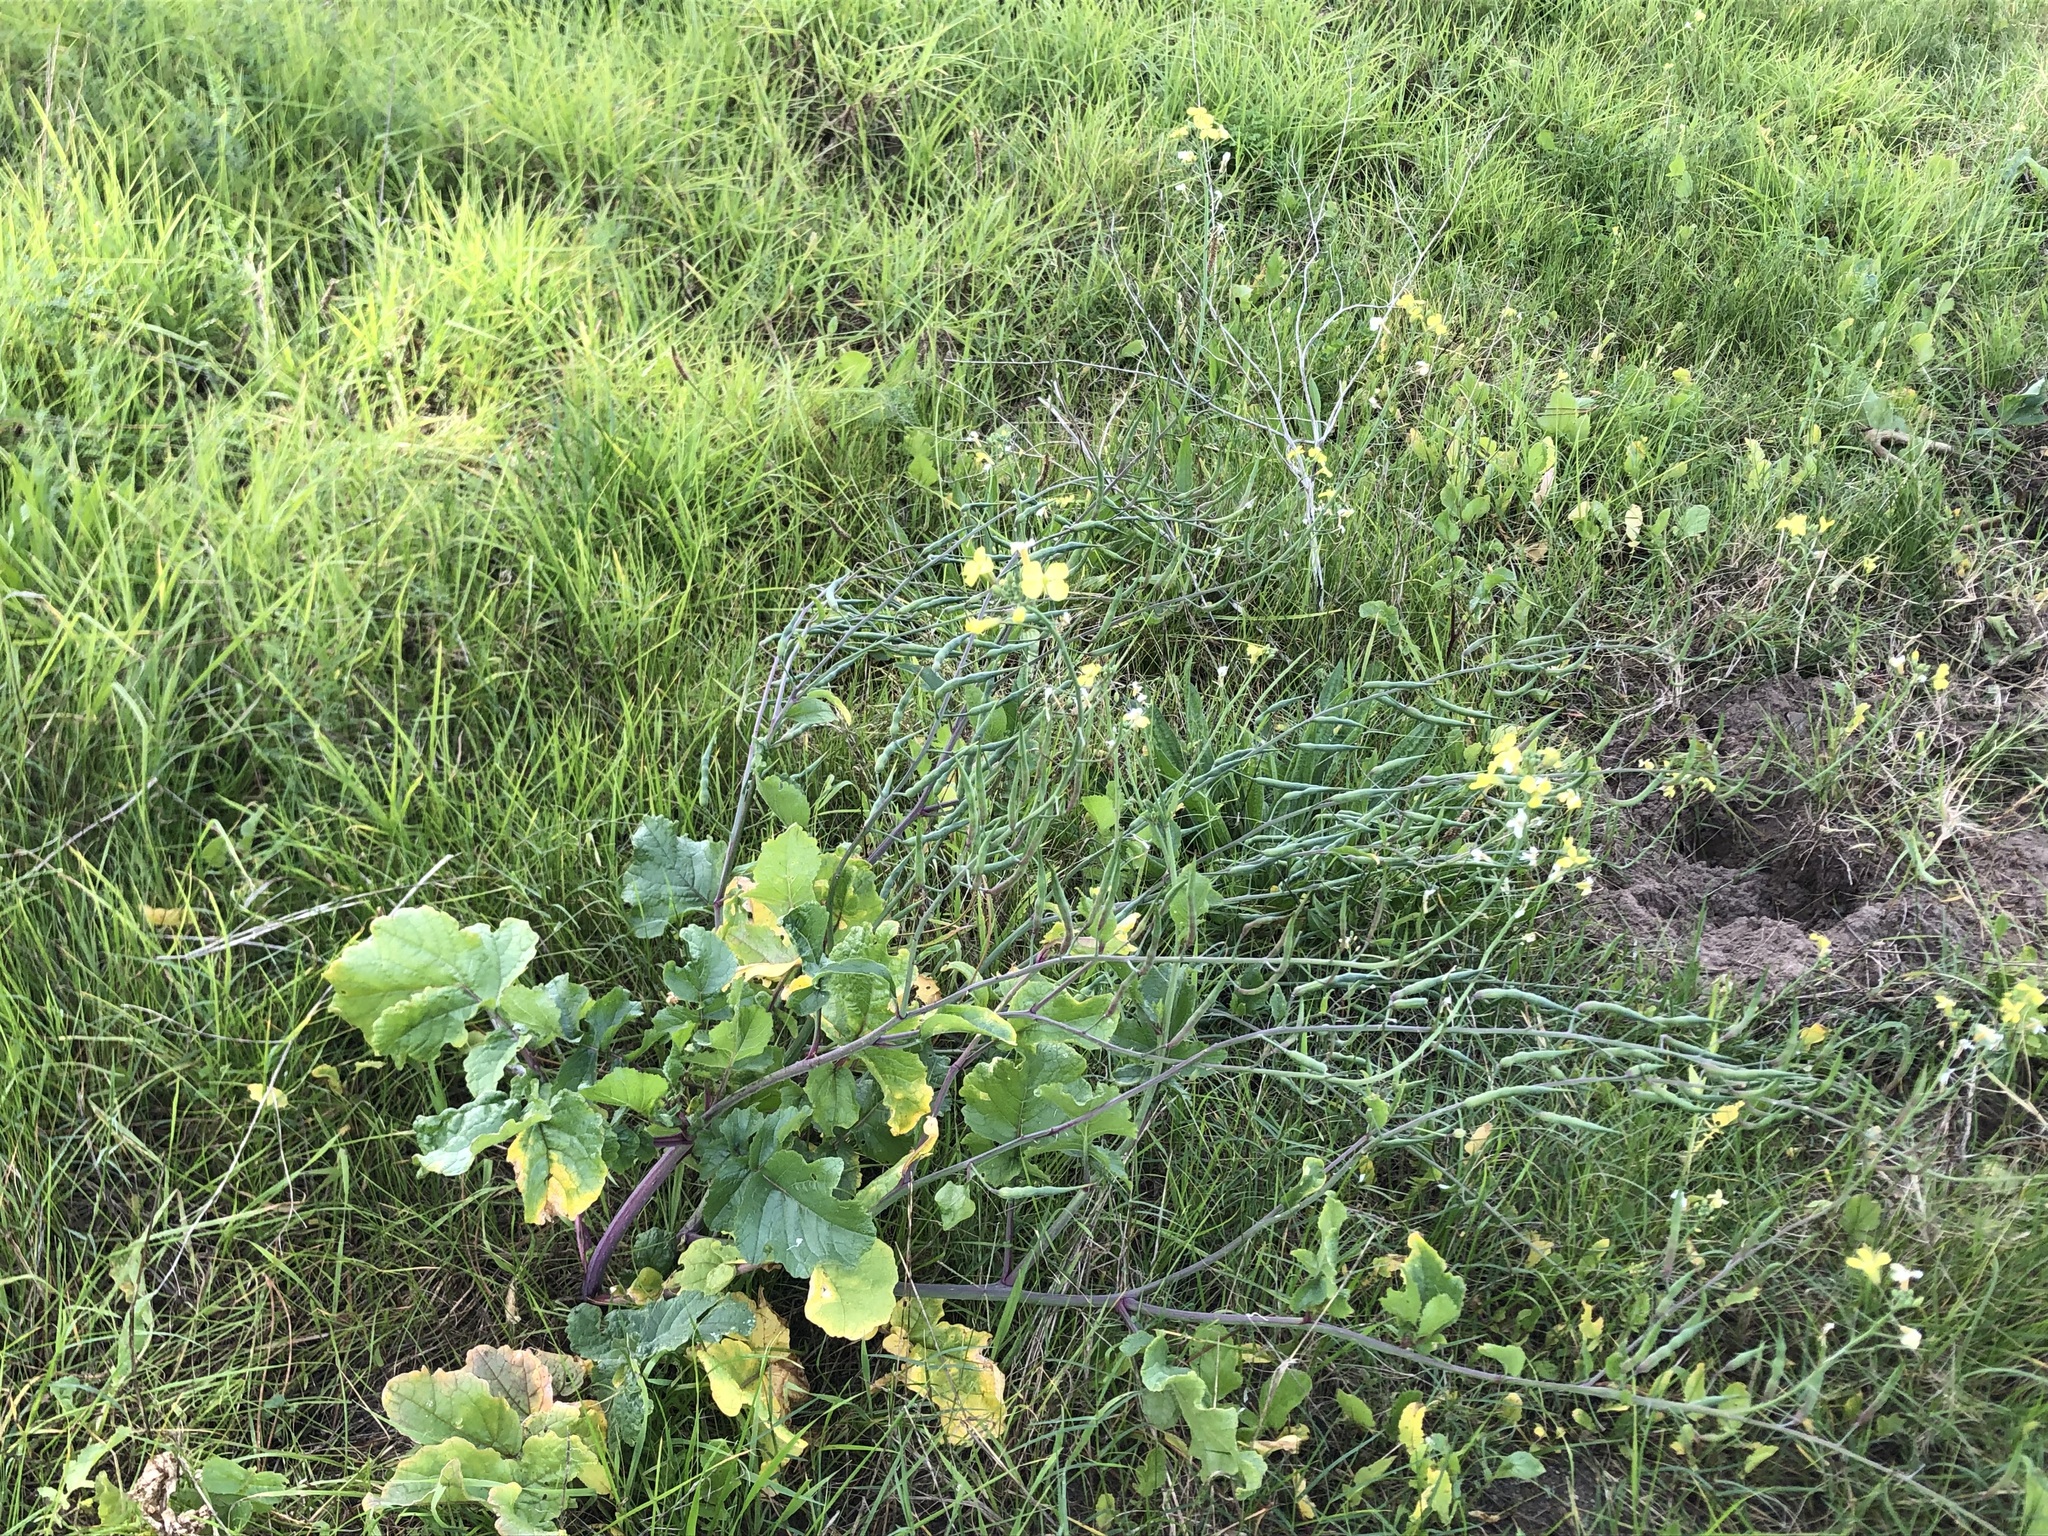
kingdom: Plantae
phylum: Tracheophyta
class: Magnoliopsida
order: Brassicales
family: Brassicaceae
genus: Raphanus
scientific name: Raphanus raphanistrum
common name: Wild radish
